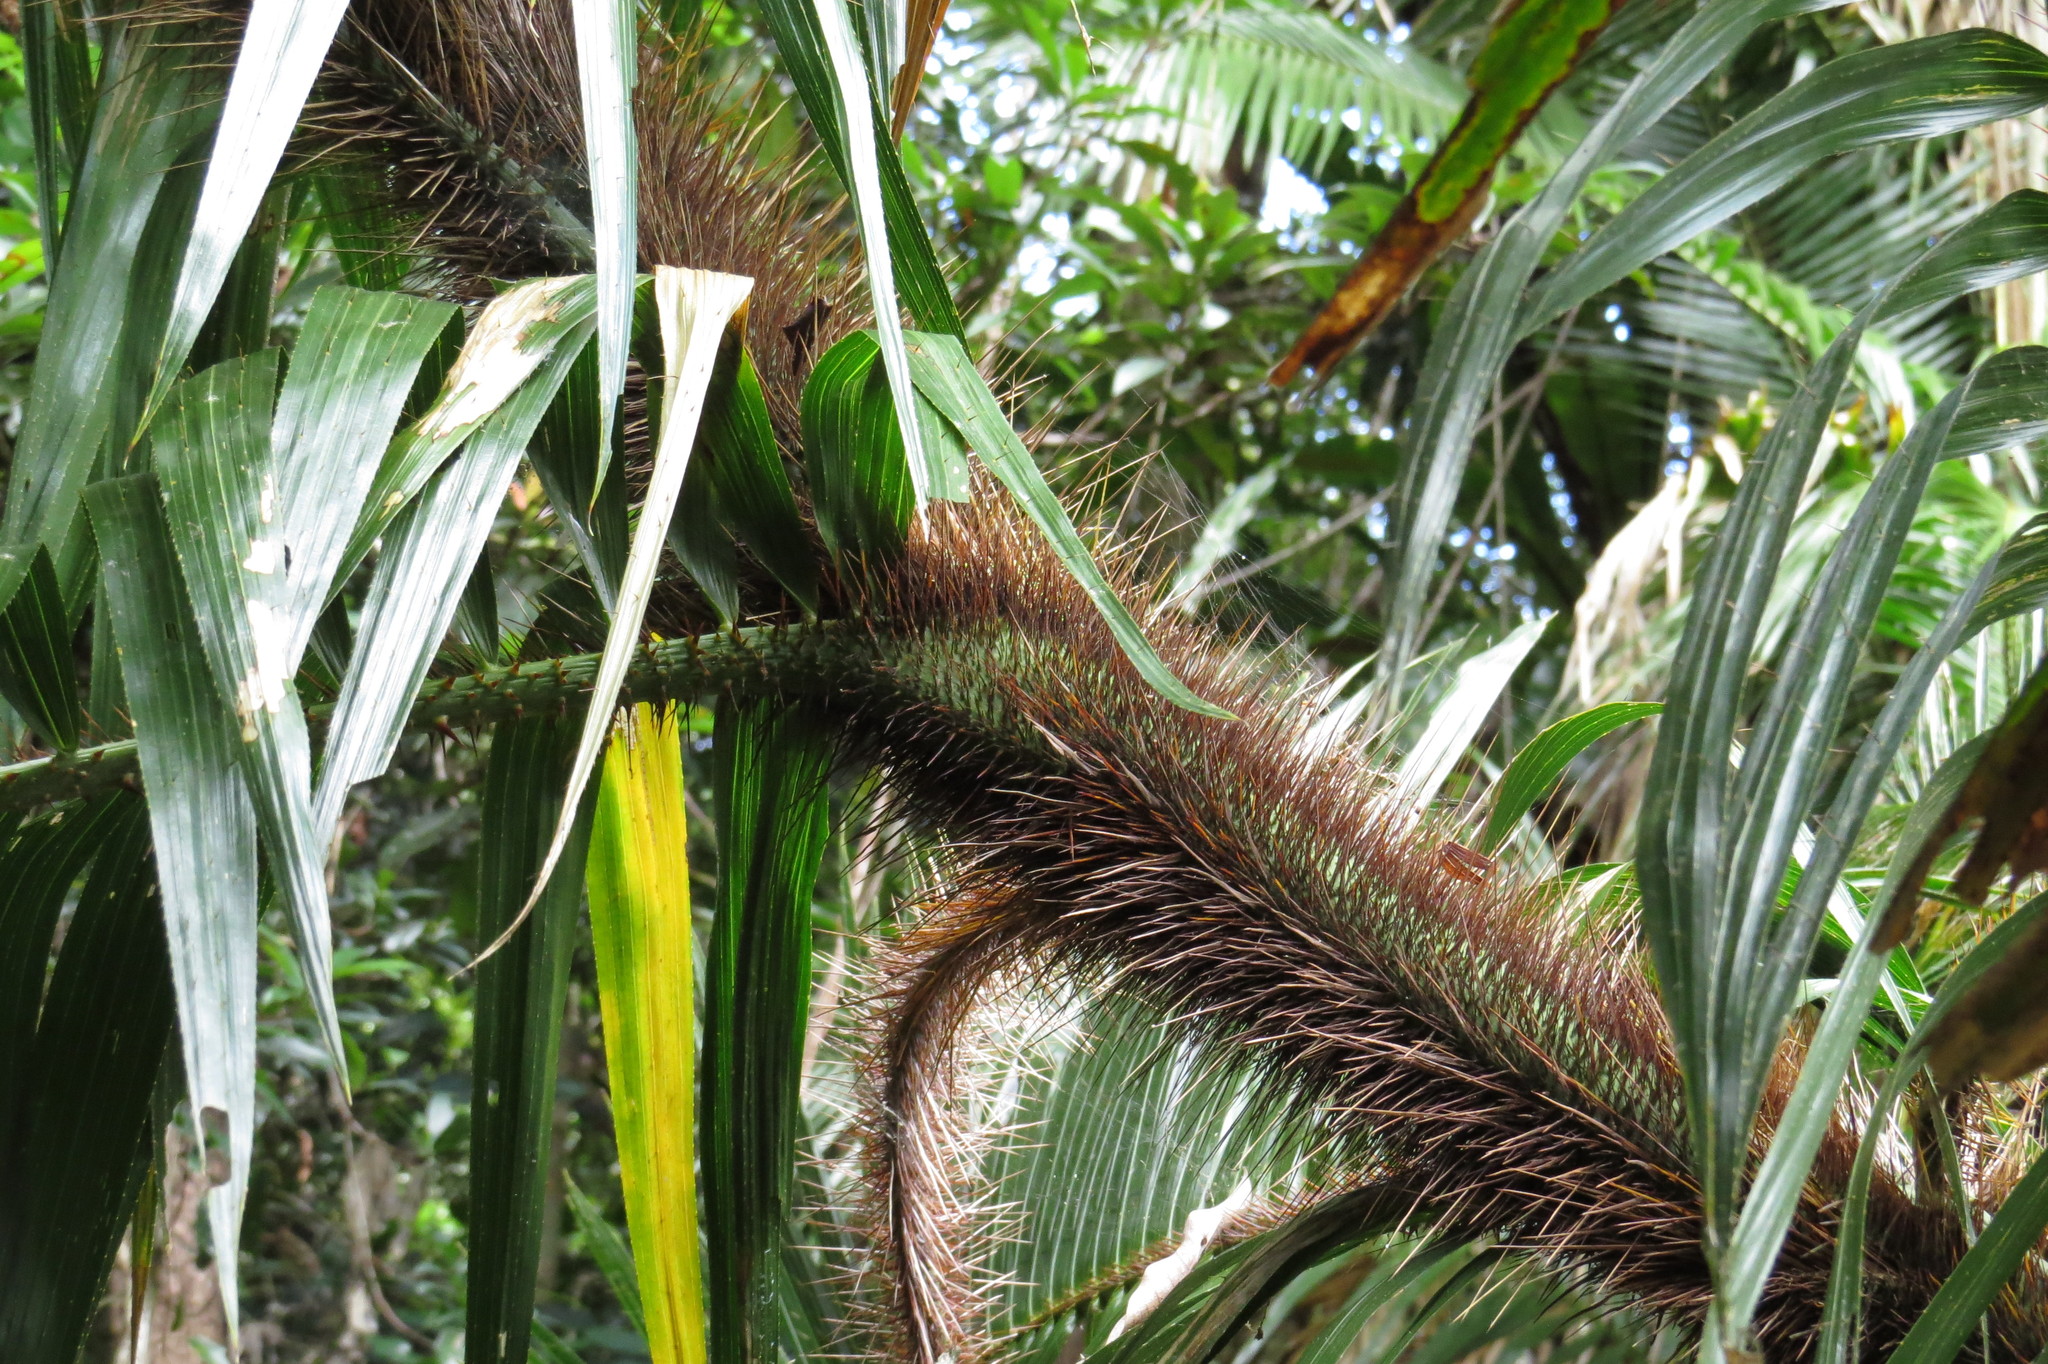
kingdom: Plantae
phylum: Tracheophyta
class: Liliopsida
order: Arecales
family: Arecaceae
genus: Calamus
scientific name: Calamus radicalis
